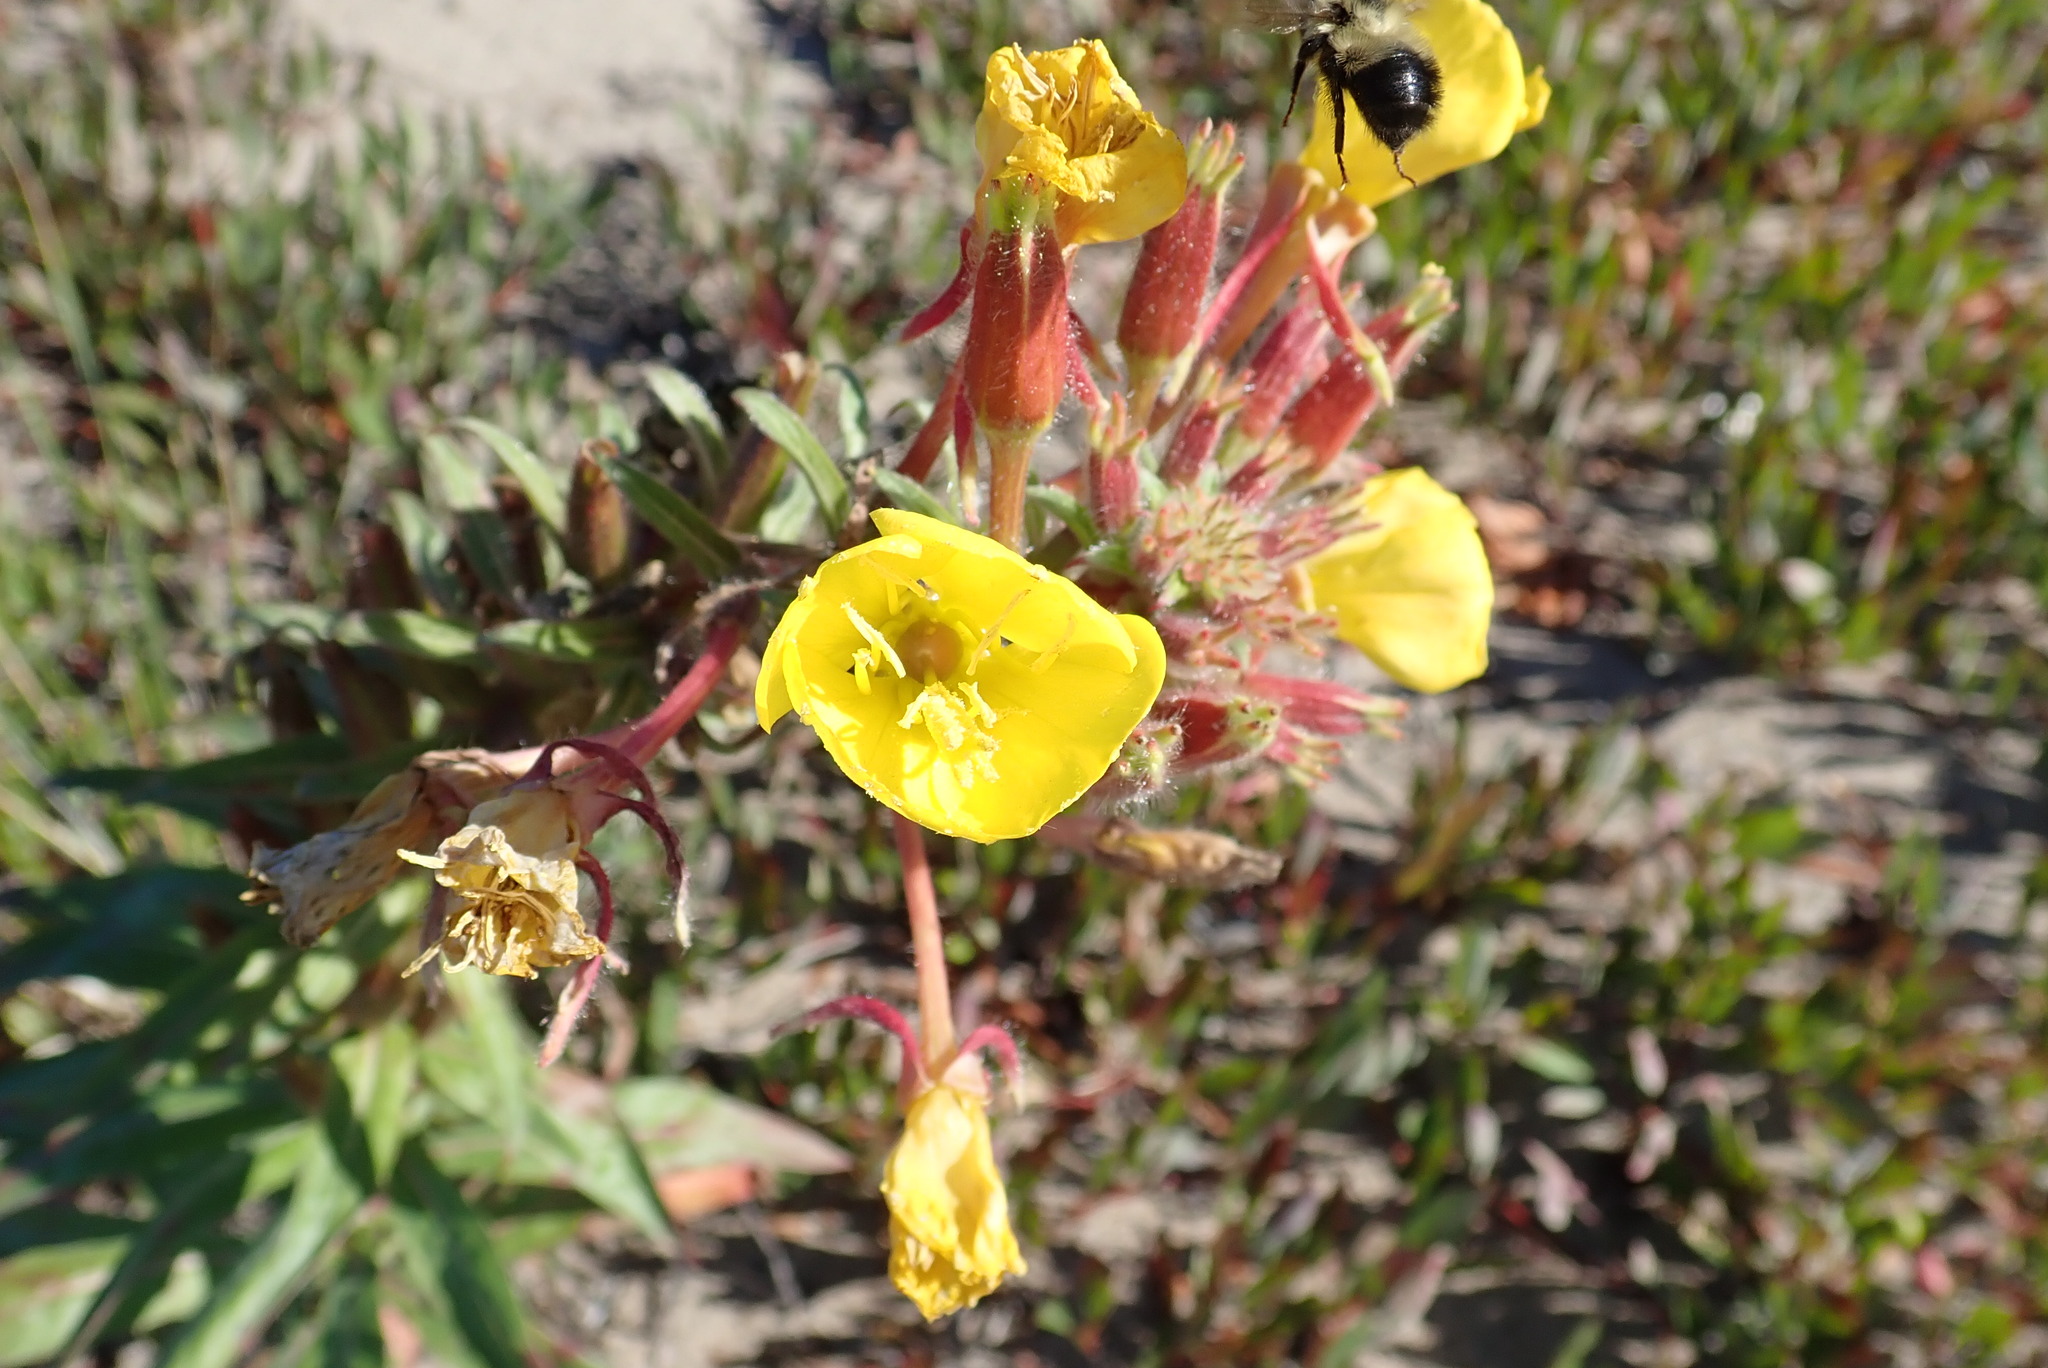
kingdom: Plantae
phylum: Tracheophyta
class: Magnoliopsida
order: Myrtales
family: Onagraceae
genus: Oenothera
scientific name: Oenothera biennis
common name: Common evening-primrose
